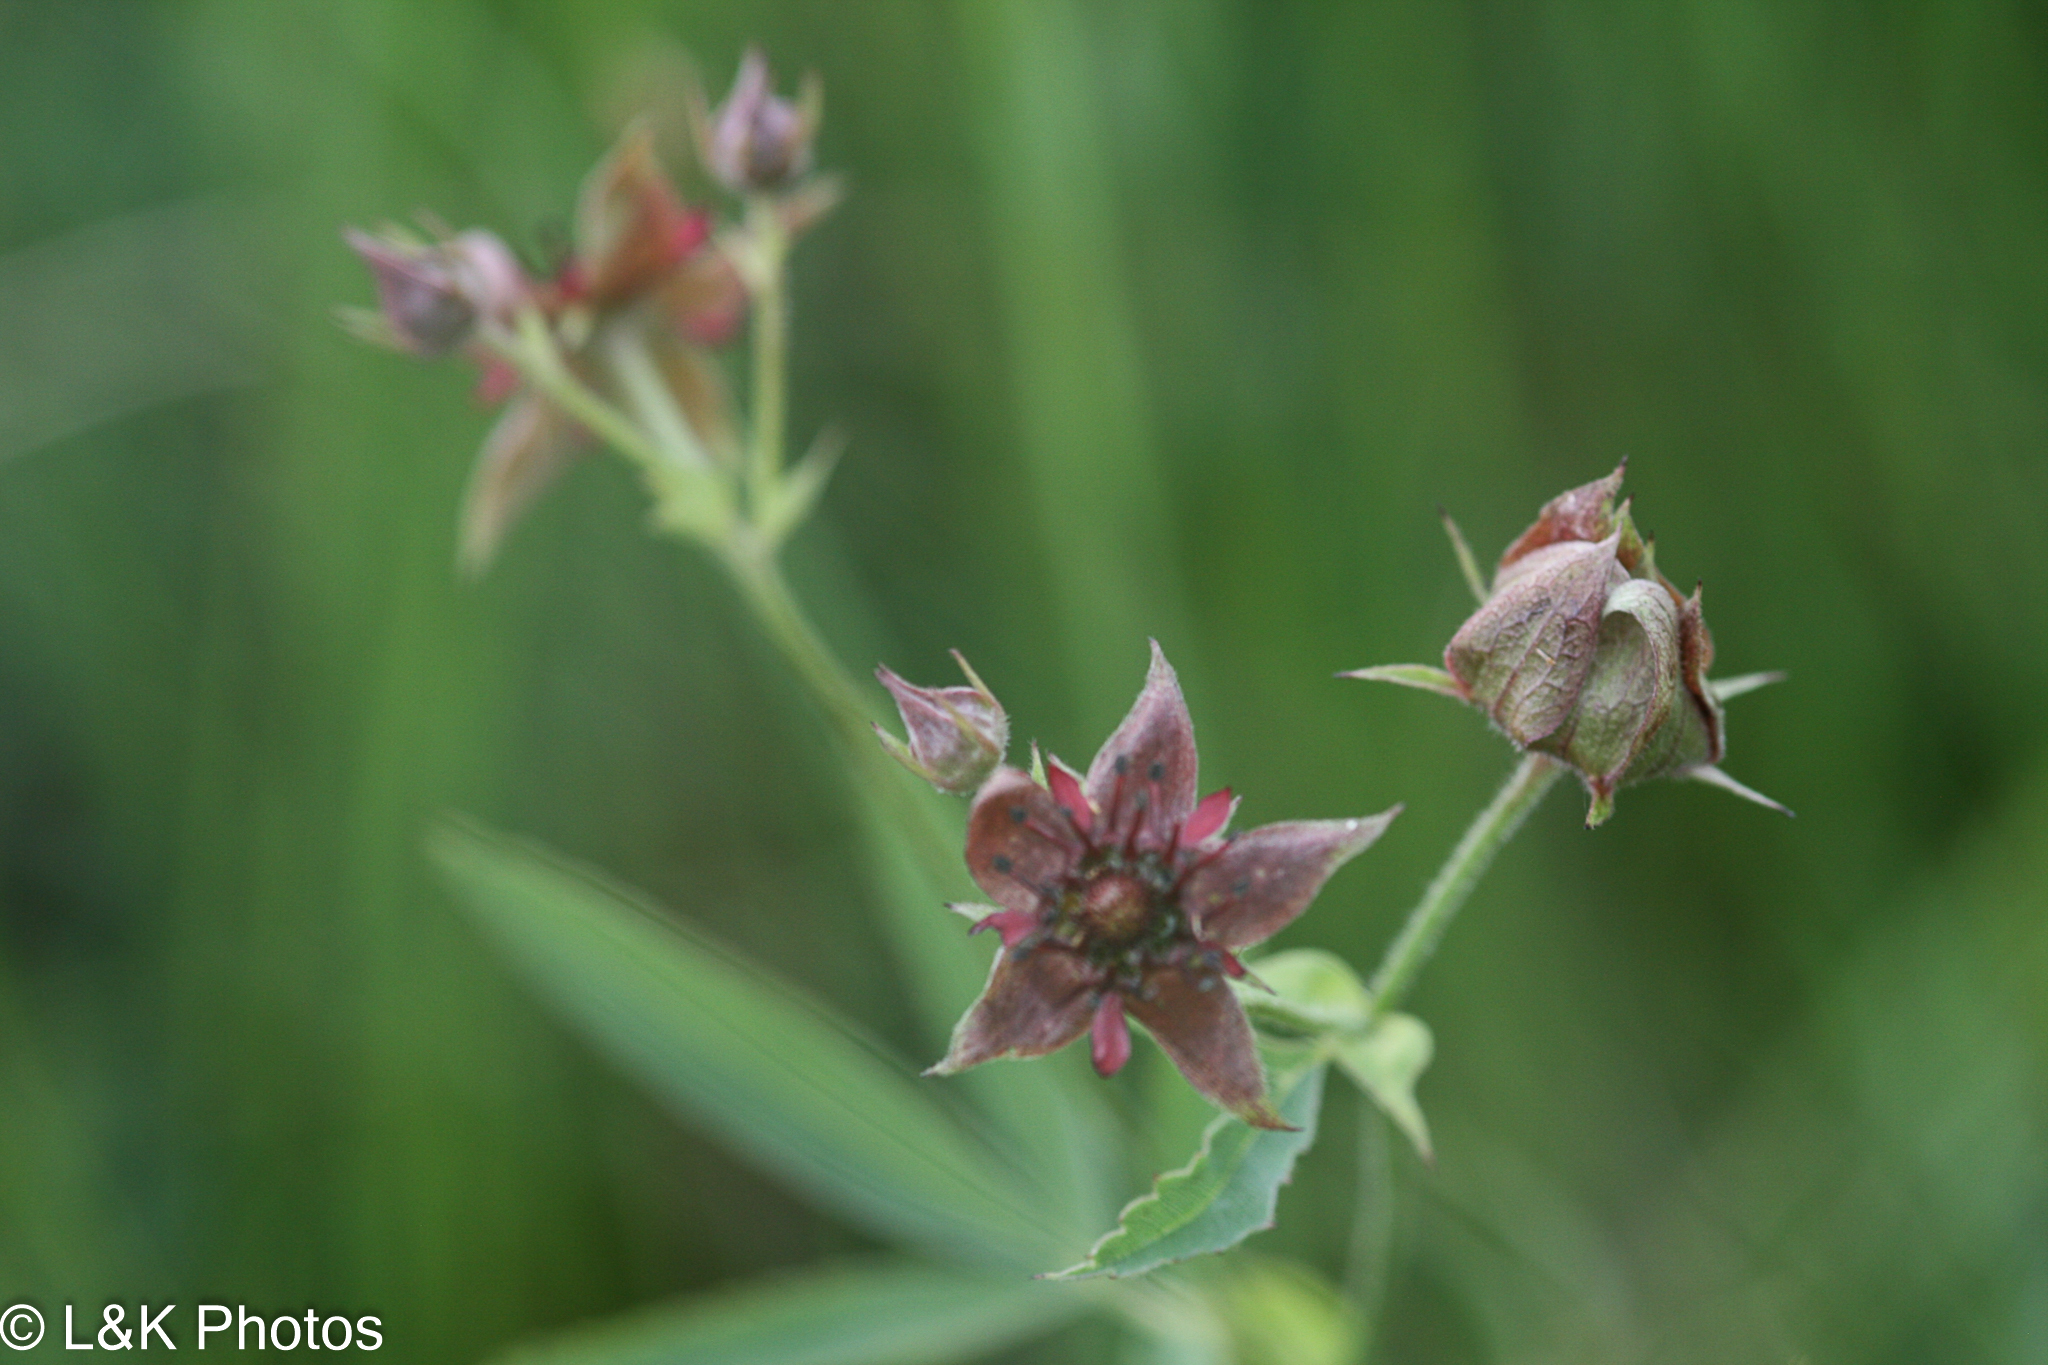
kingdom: Plantae
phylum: Tracheophyta
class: Magnoliopsida
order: Rosales
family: Rosaceae
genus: Comarum
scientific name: Comarum palustre
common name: Marsh cinquefoil
